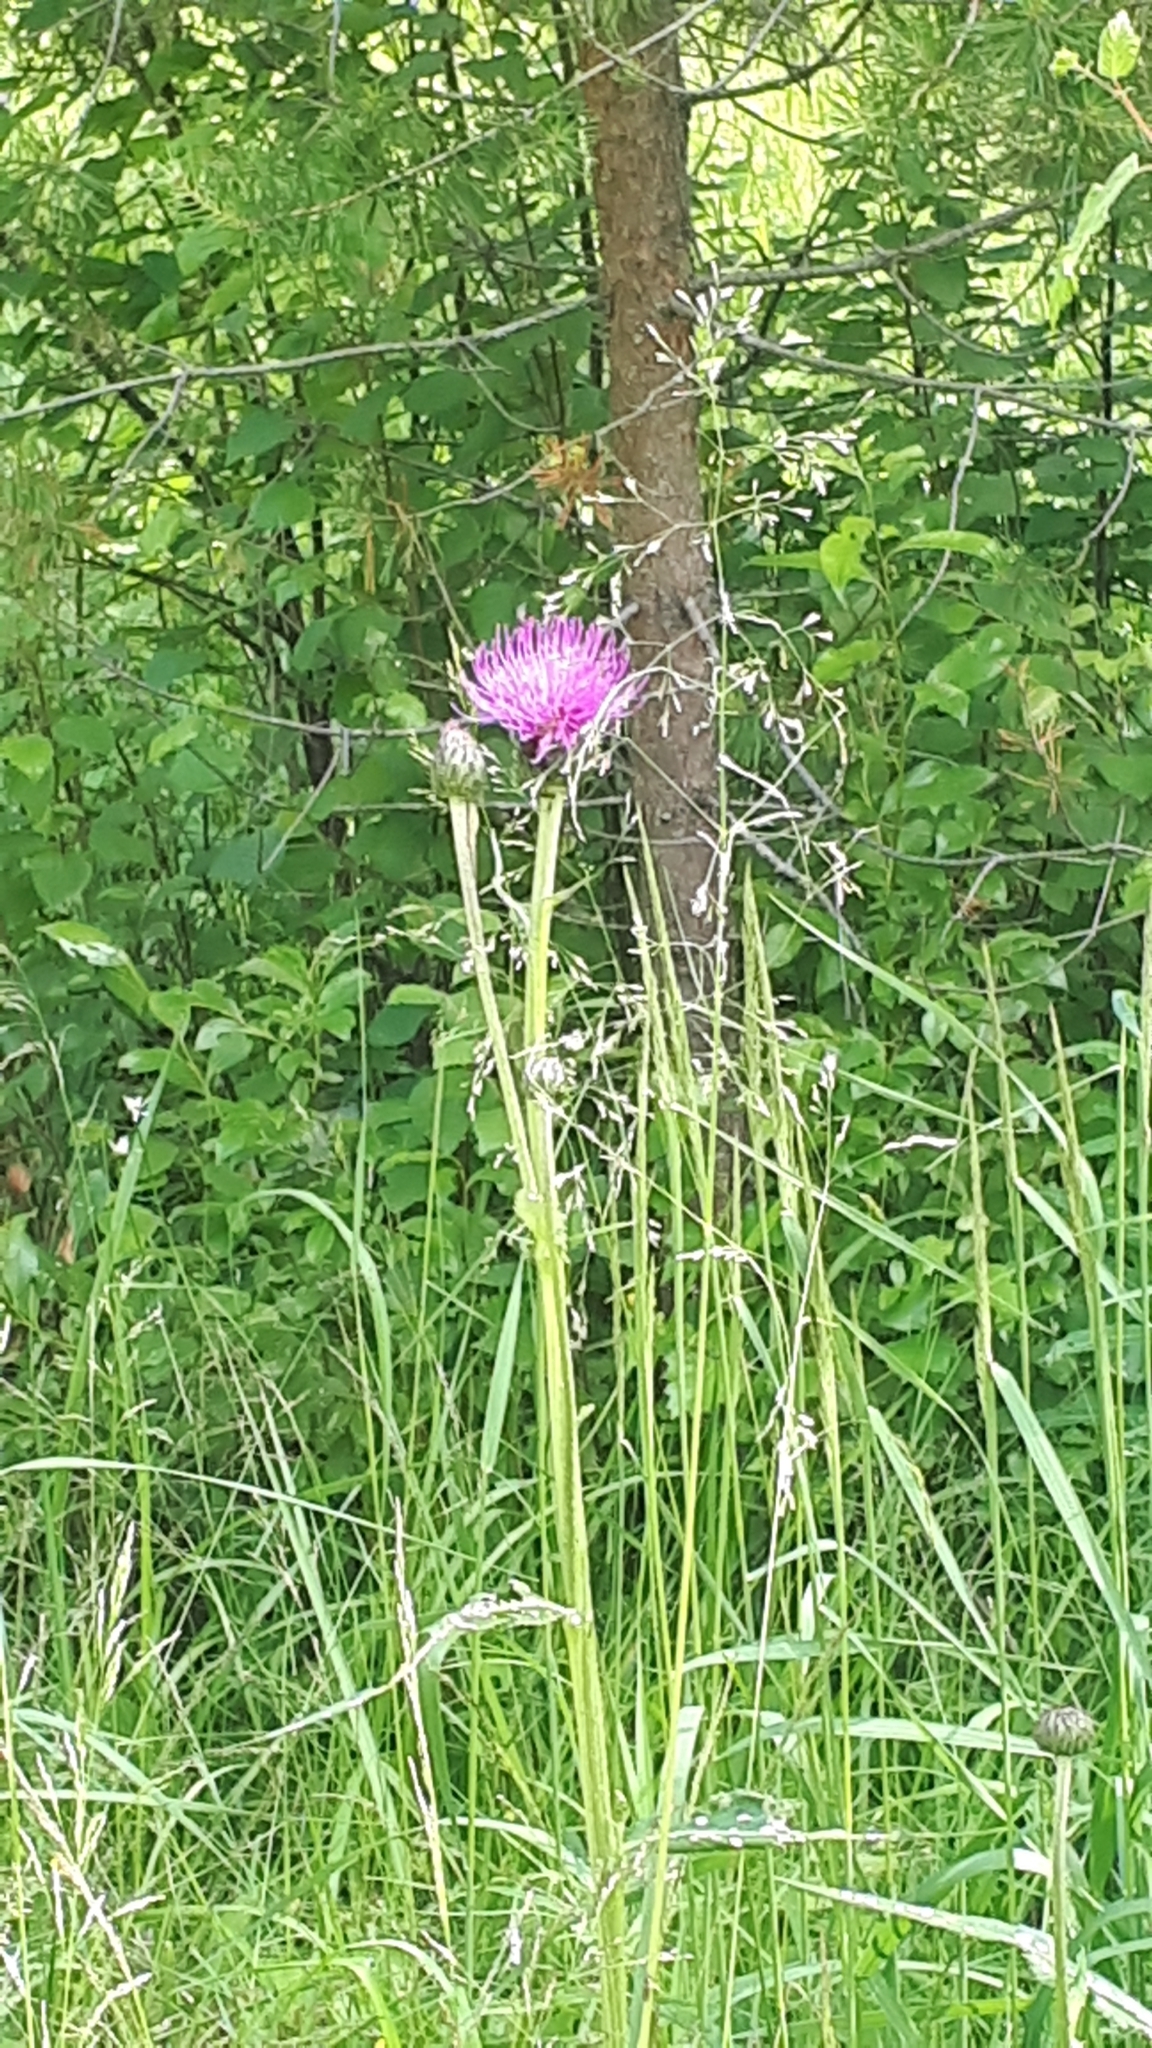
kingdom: Plantae
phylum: Tracheophyta
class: Magnoliopsida
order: Asterales
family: Asteraceae
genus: Cirsium
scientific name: Cirsium heterophyllum
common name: Melancholy thistle
